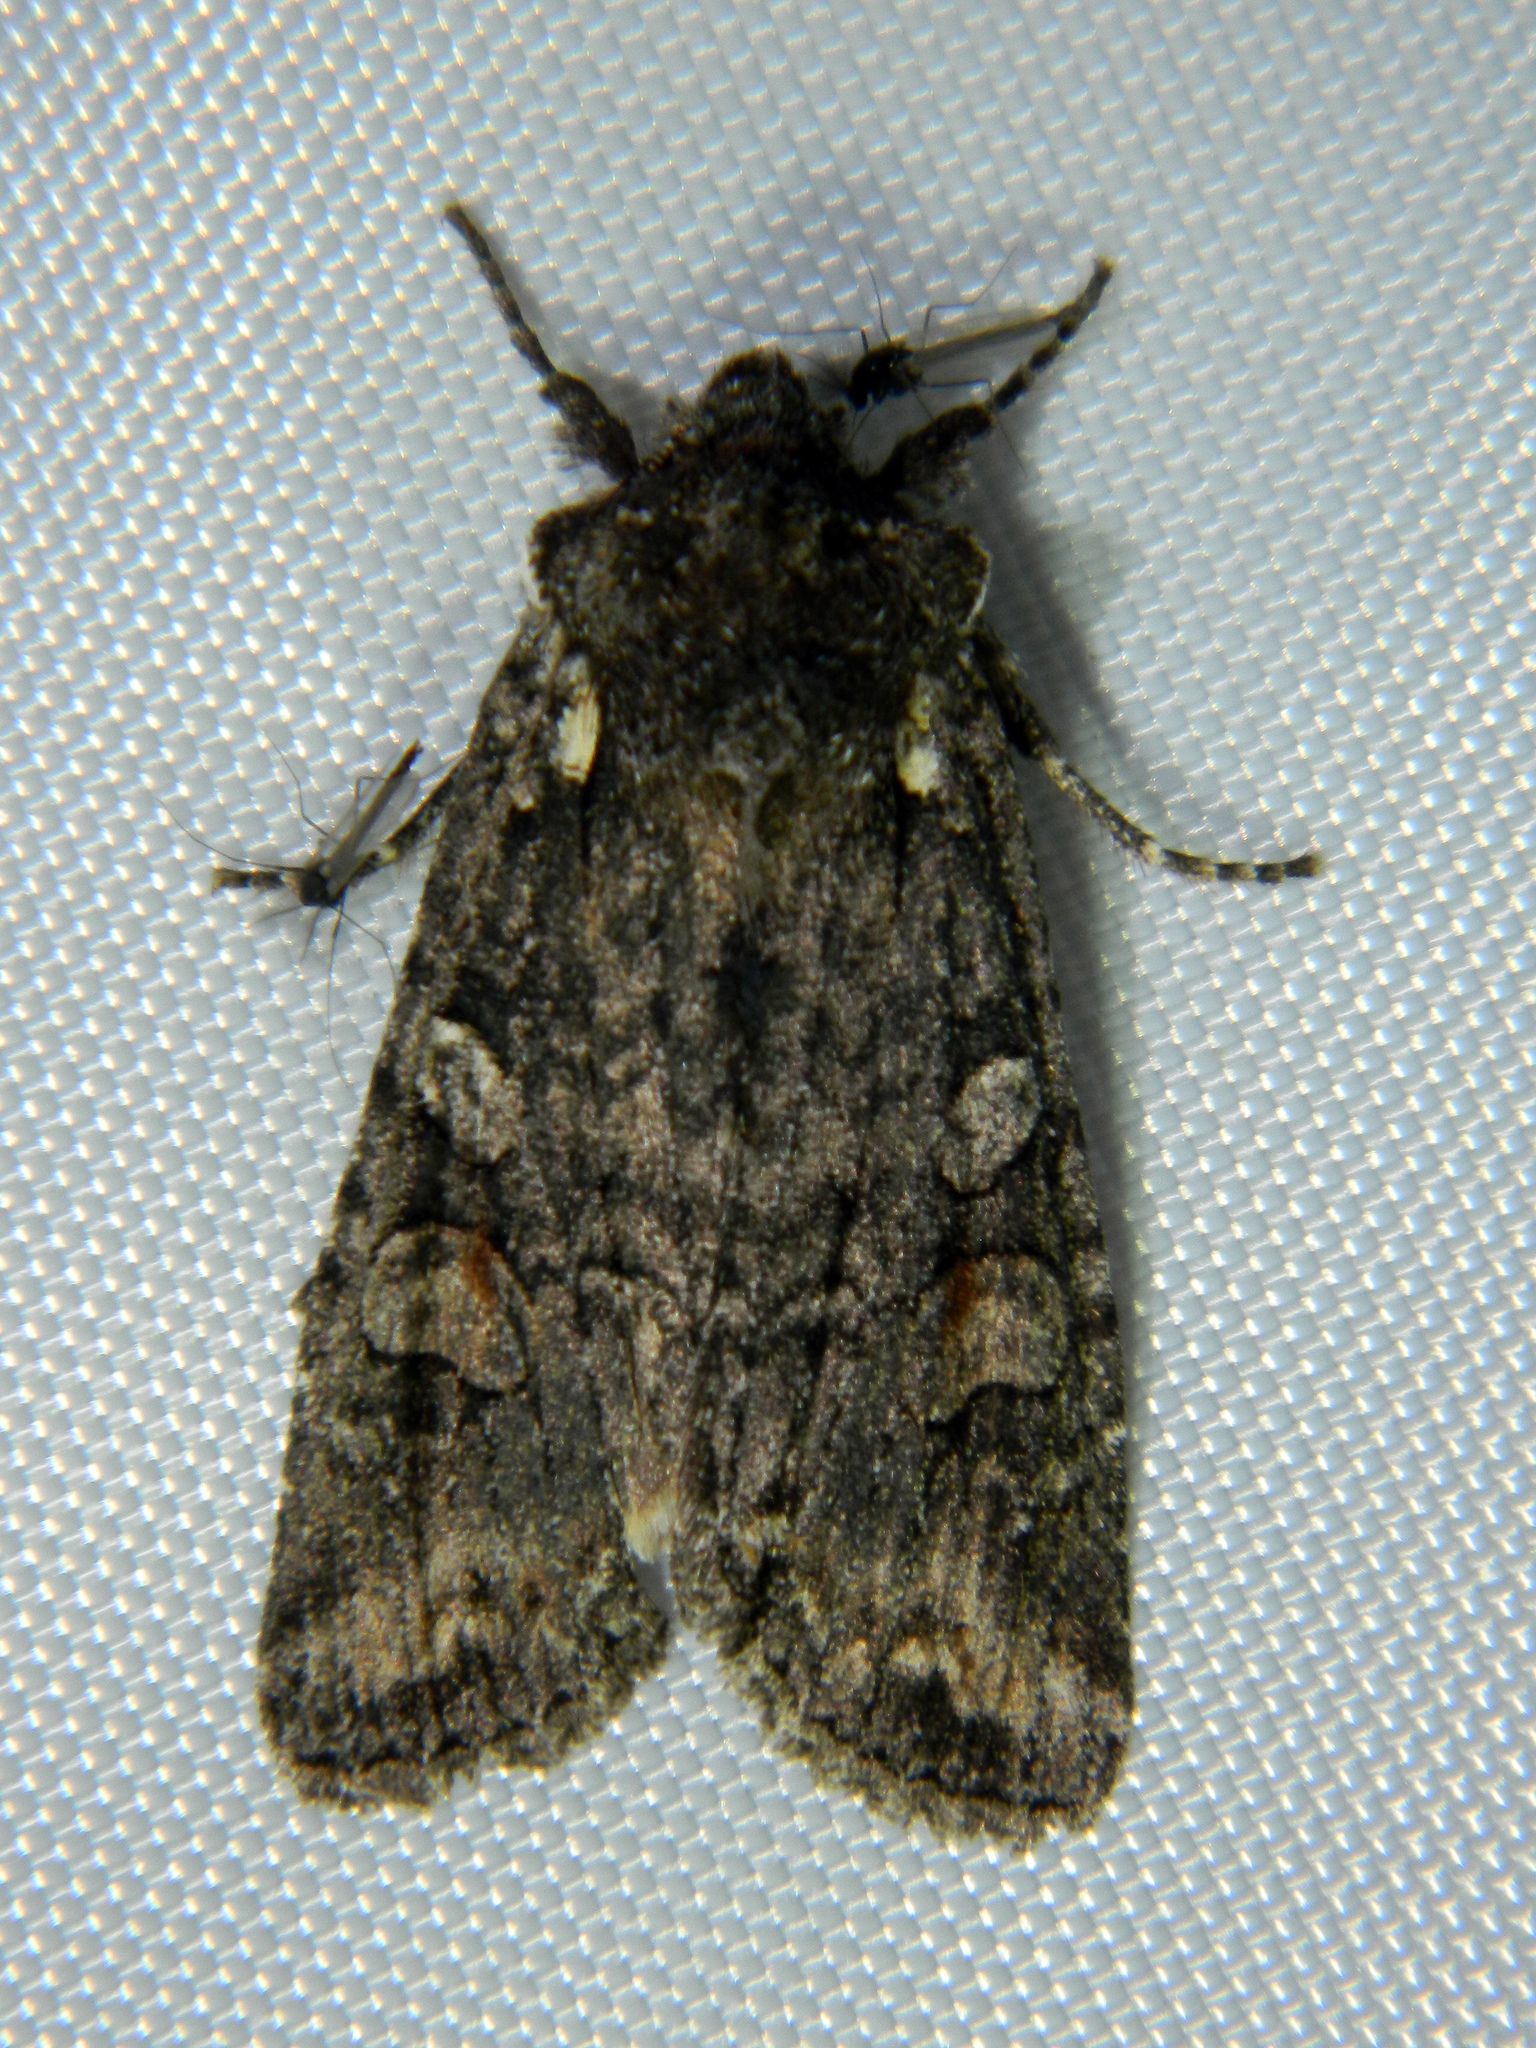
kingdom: Animalia
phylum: Arthropoda
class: Insecta
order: Lepidoptera
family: Noctuidae
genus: Lithophane
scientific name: Lithophane pexata
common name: Plush-naped pinion moth
